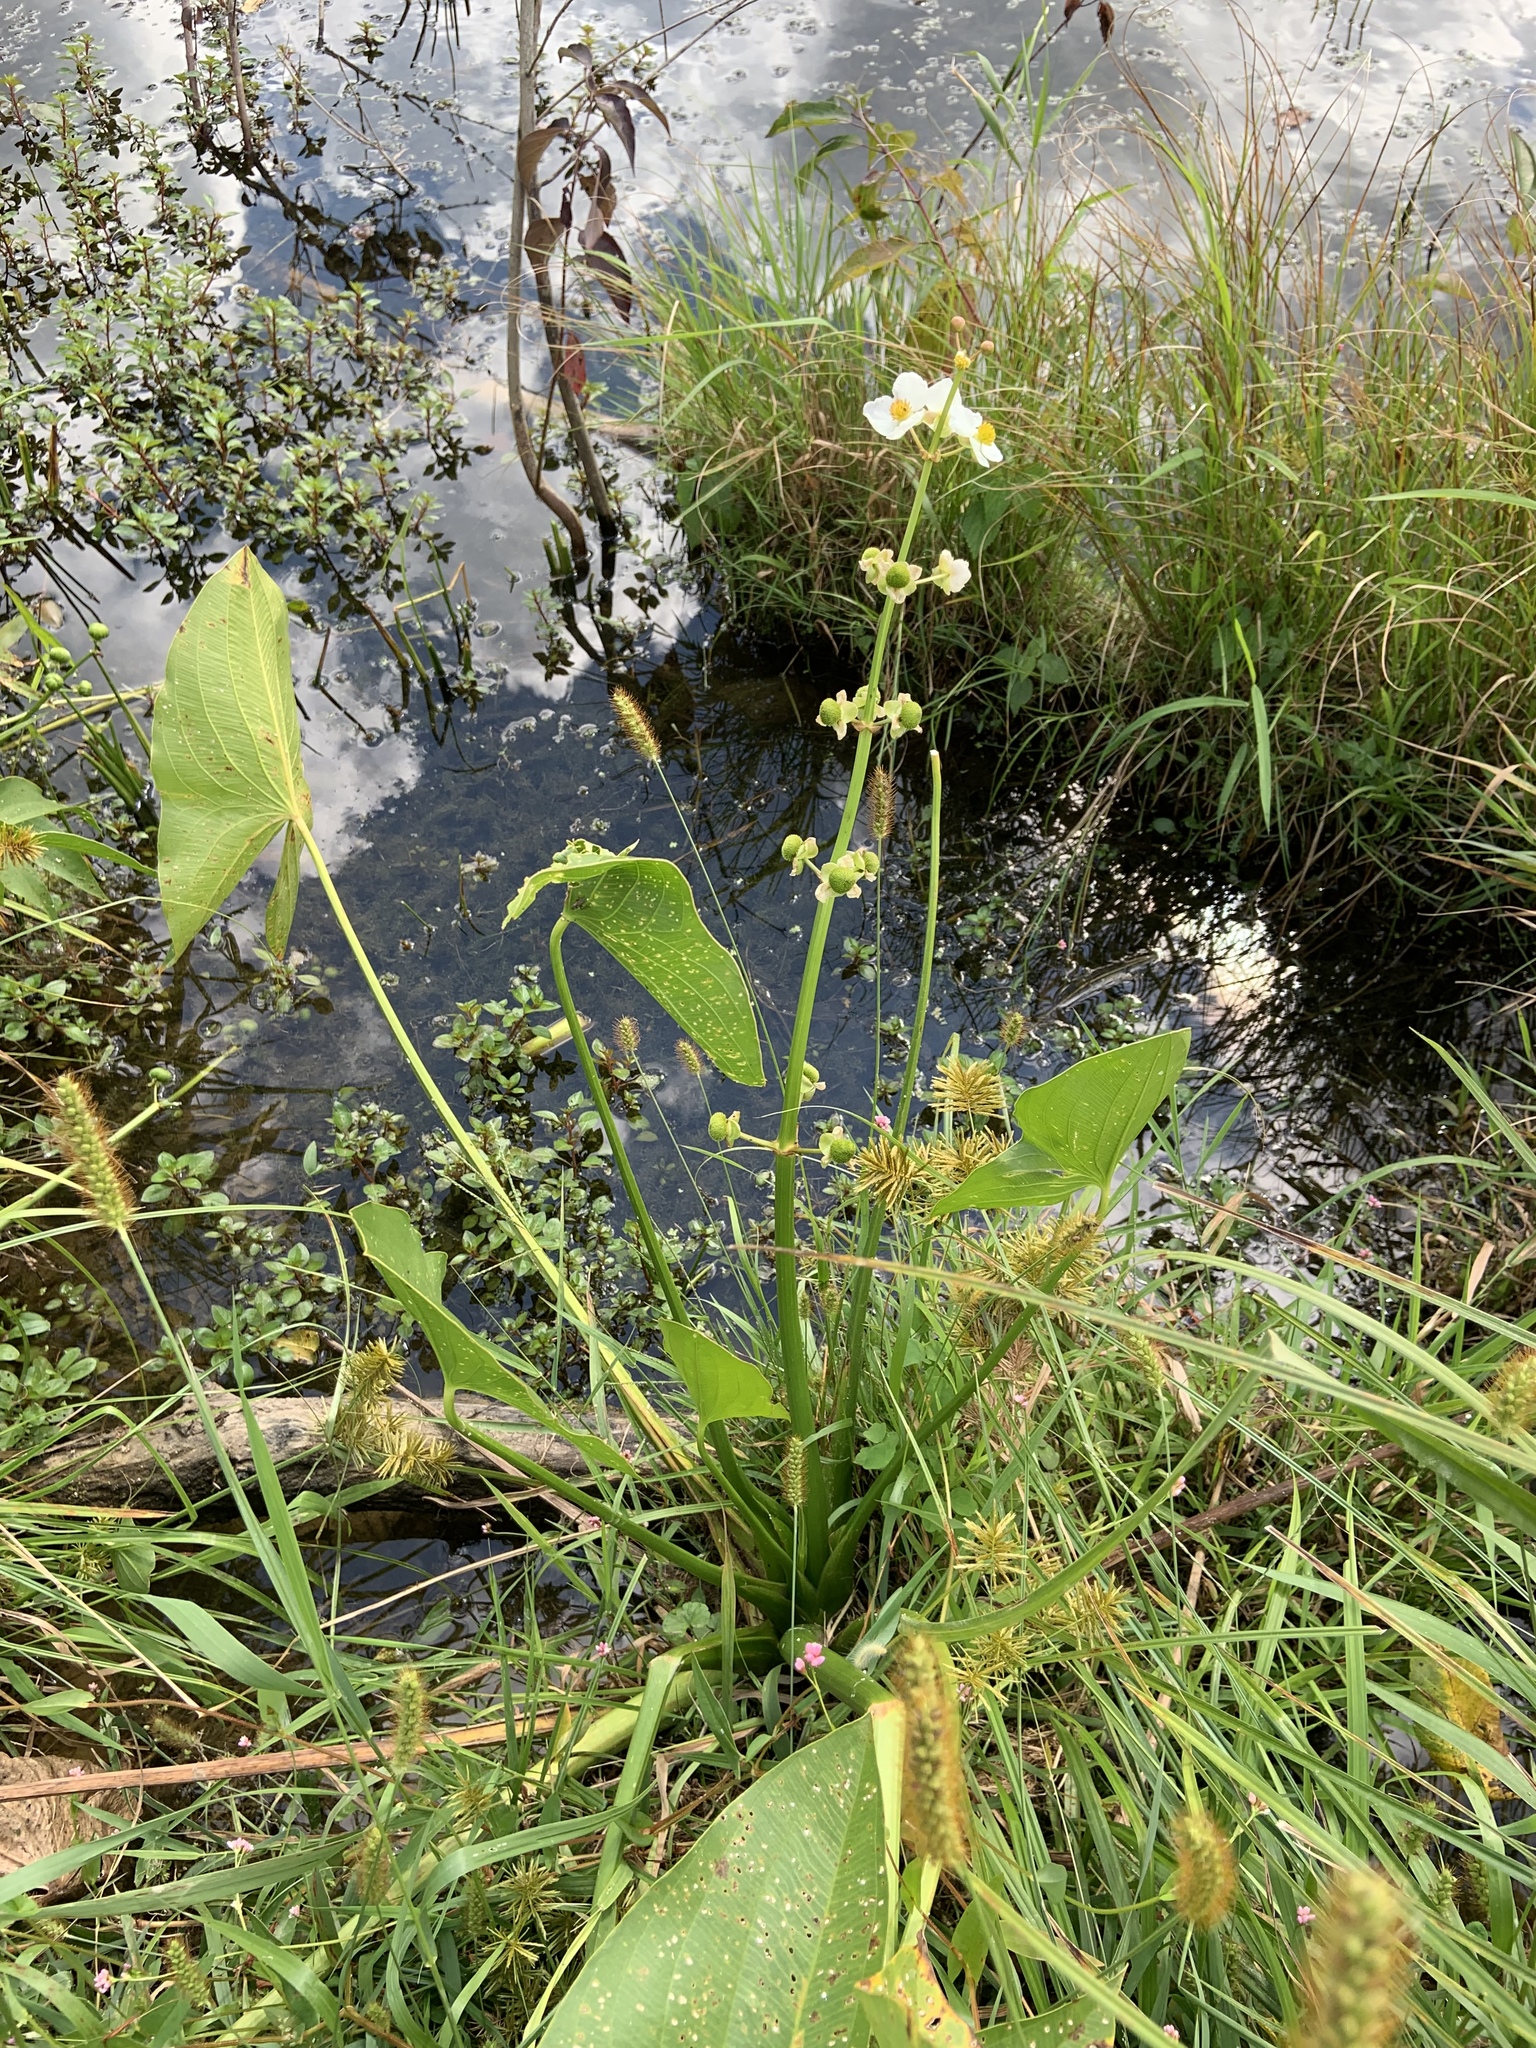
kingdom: Plantae
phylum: Tracheophyta
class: Liliopsida
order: Alismatales
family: Alismataceae
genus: Sagittaria
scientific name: Sagittaria latifolia
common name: Duck-potato
